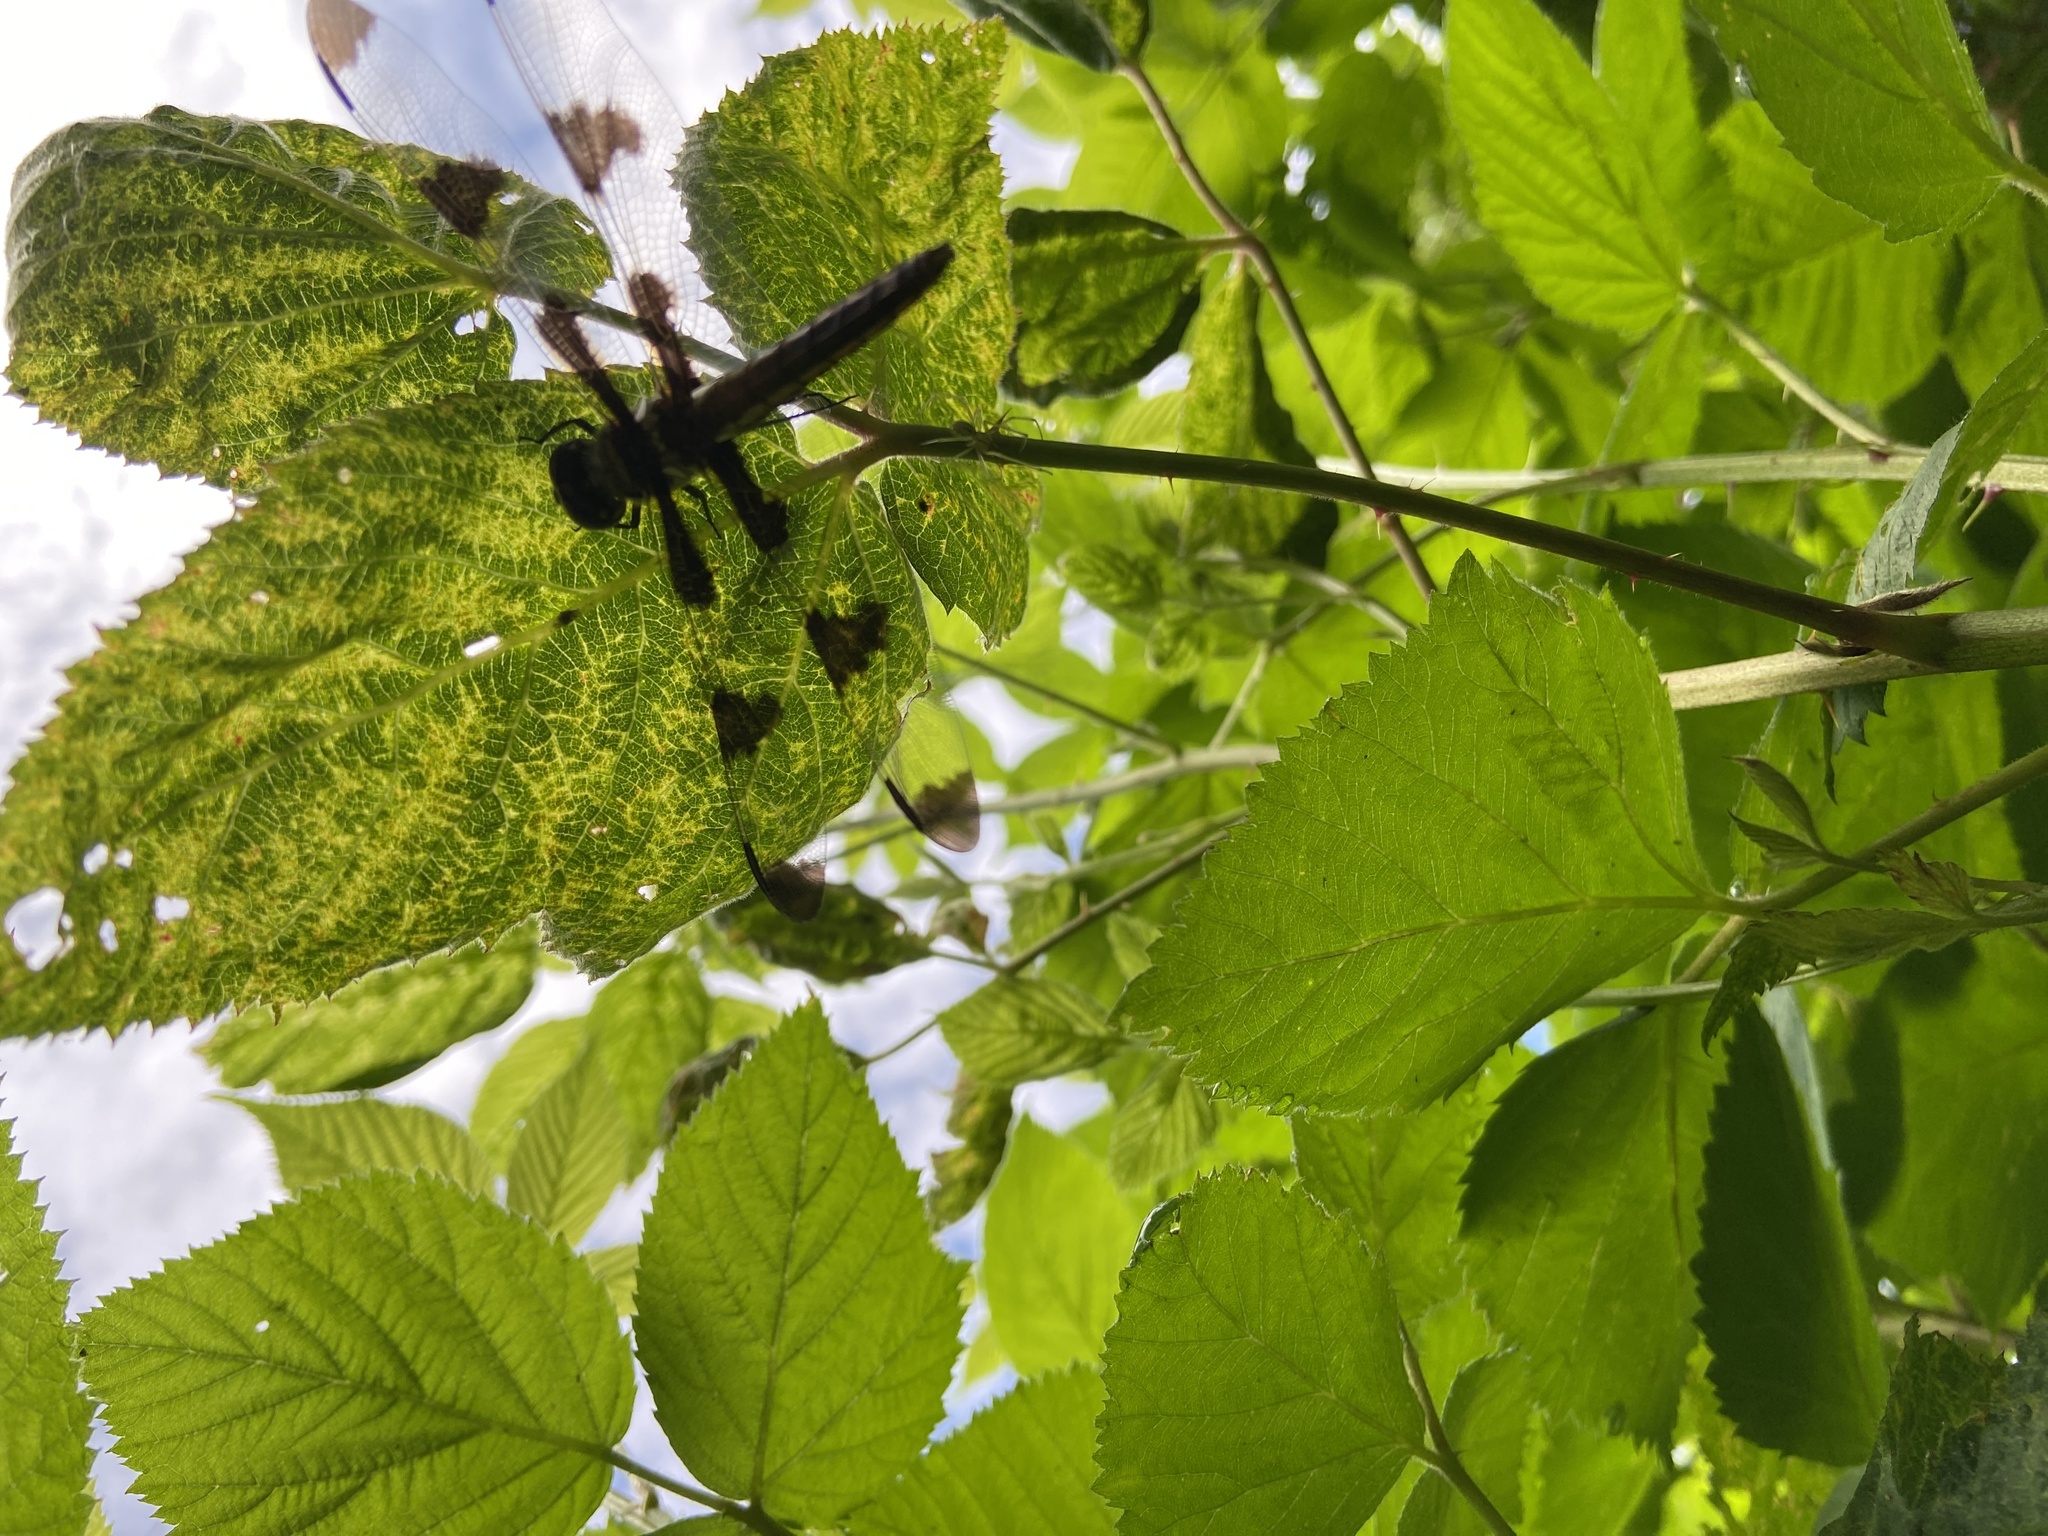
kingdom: Animalia
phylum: Arthropoda
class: Insecta
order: Odonata
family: Libellulidae
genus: Libellula
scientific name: Libellula pulchella
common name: Twelve-spotted skimmer
